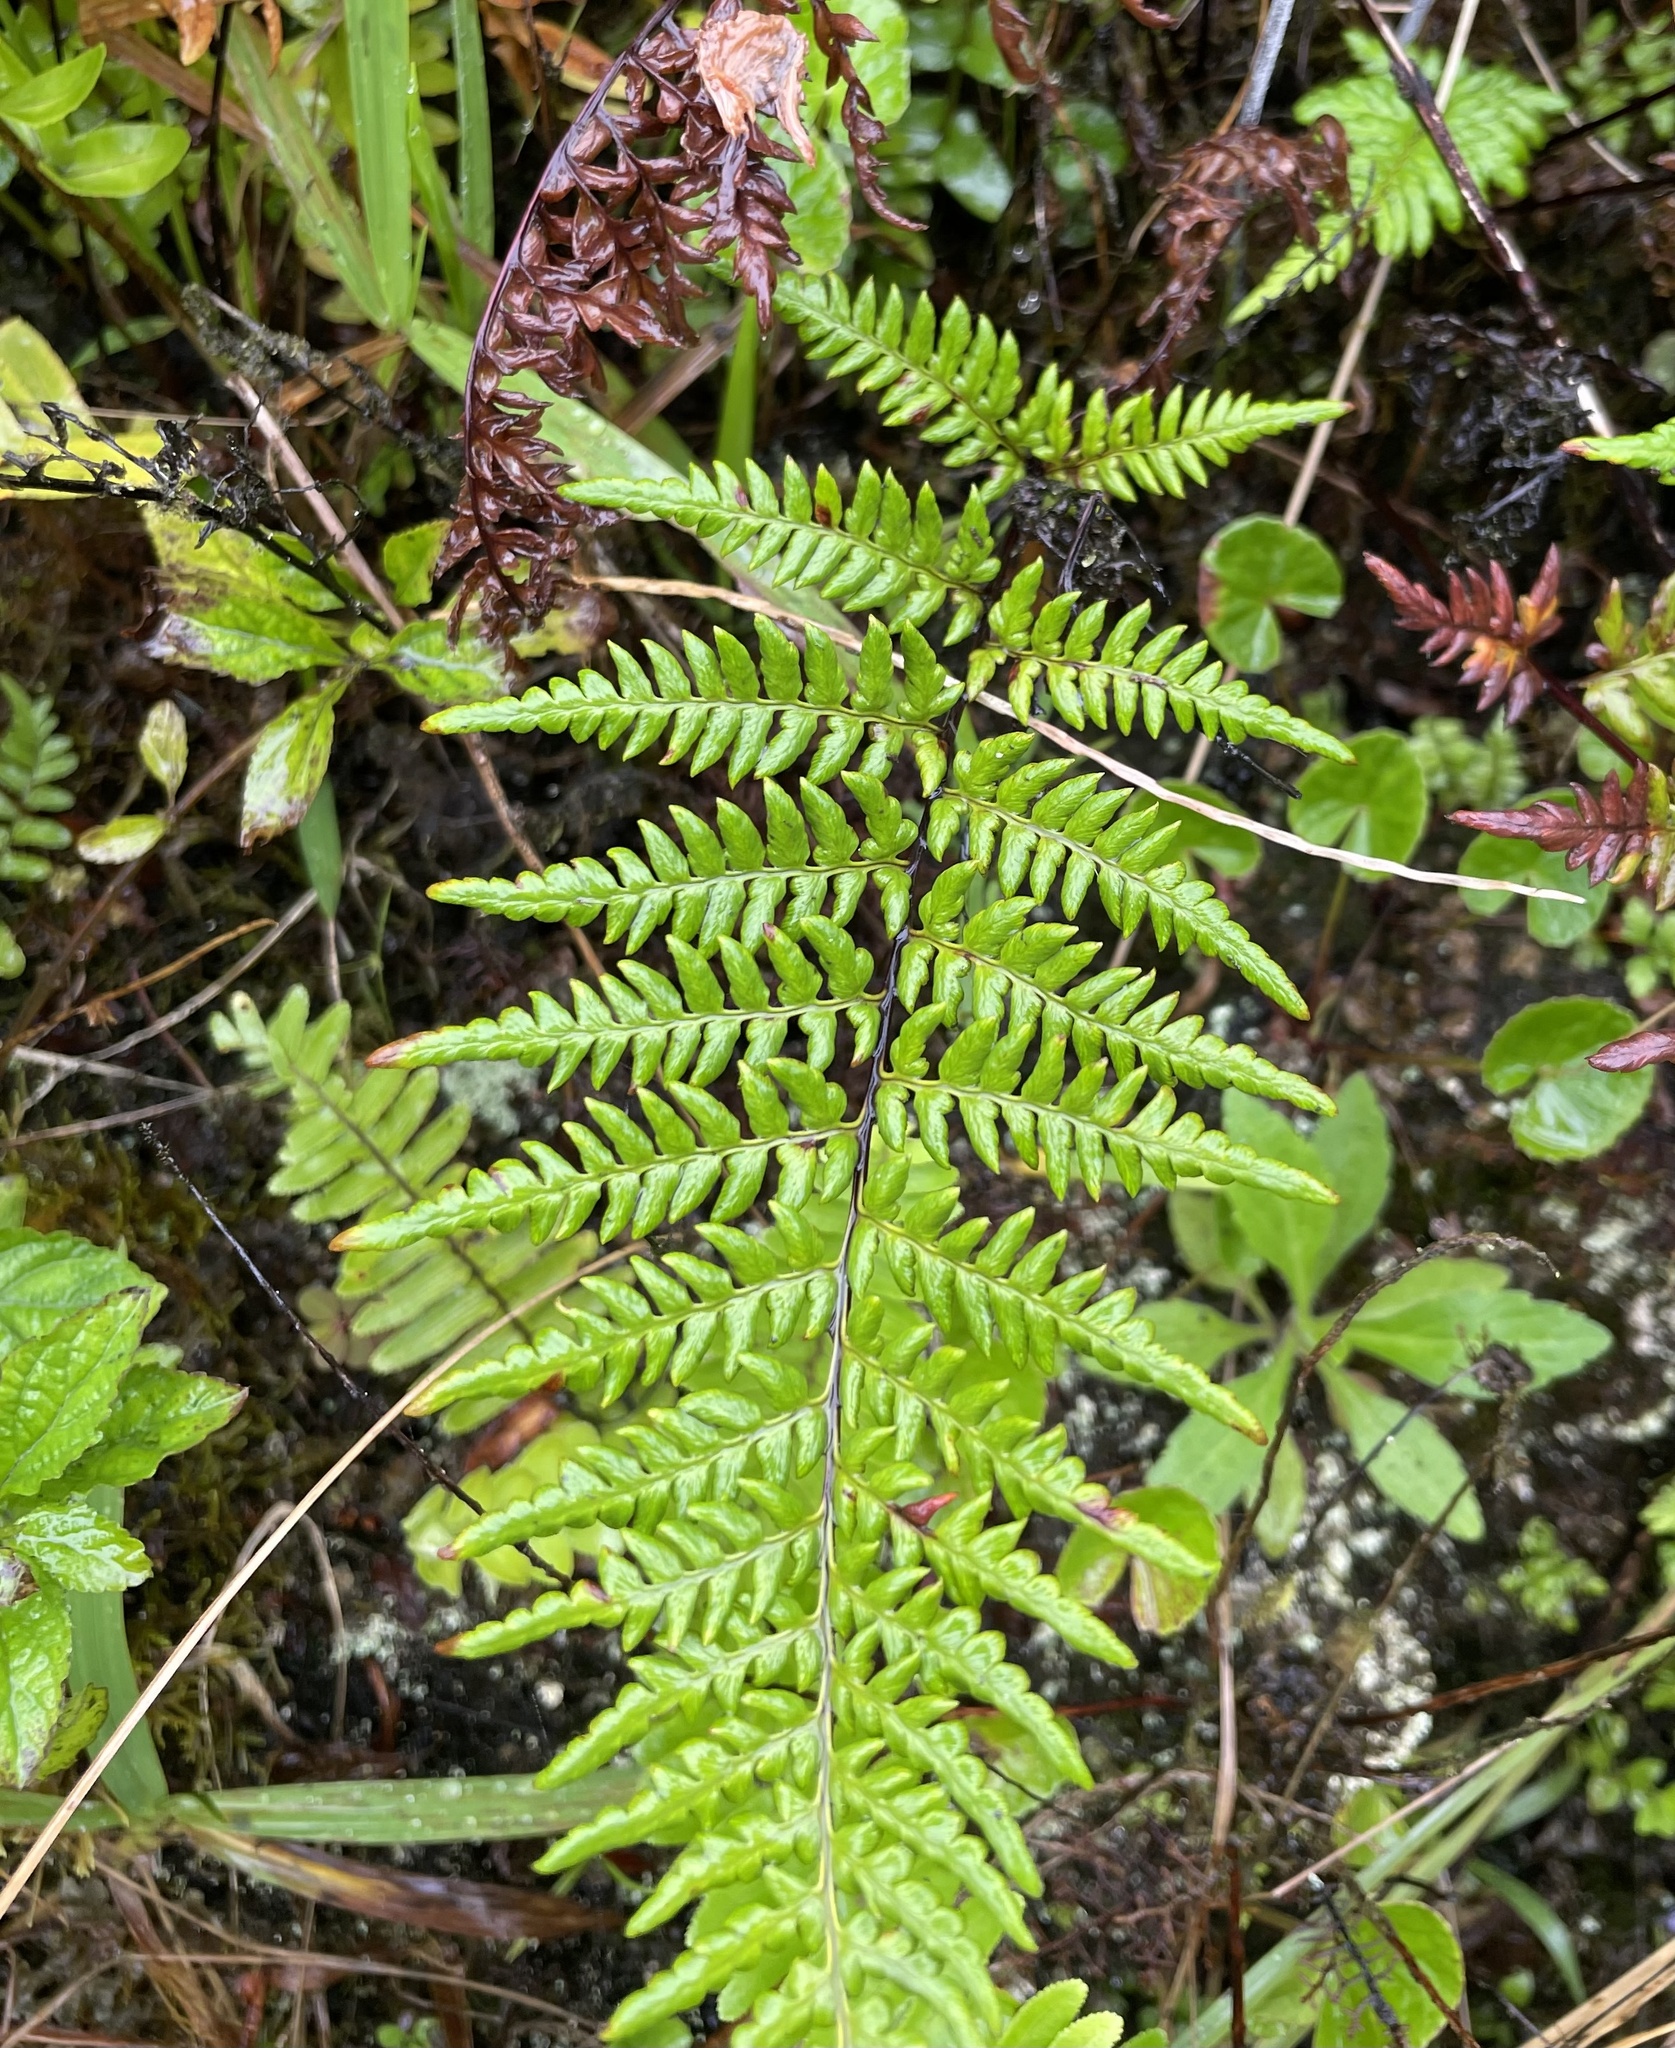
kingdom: Plantae
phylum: Tracheophyta
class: Polypodiopsida
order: Polypodiales
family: Pteridaceae
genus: Pityrogramma
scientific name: Pityrogramma calomelanos
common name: Dixie silverback fern
